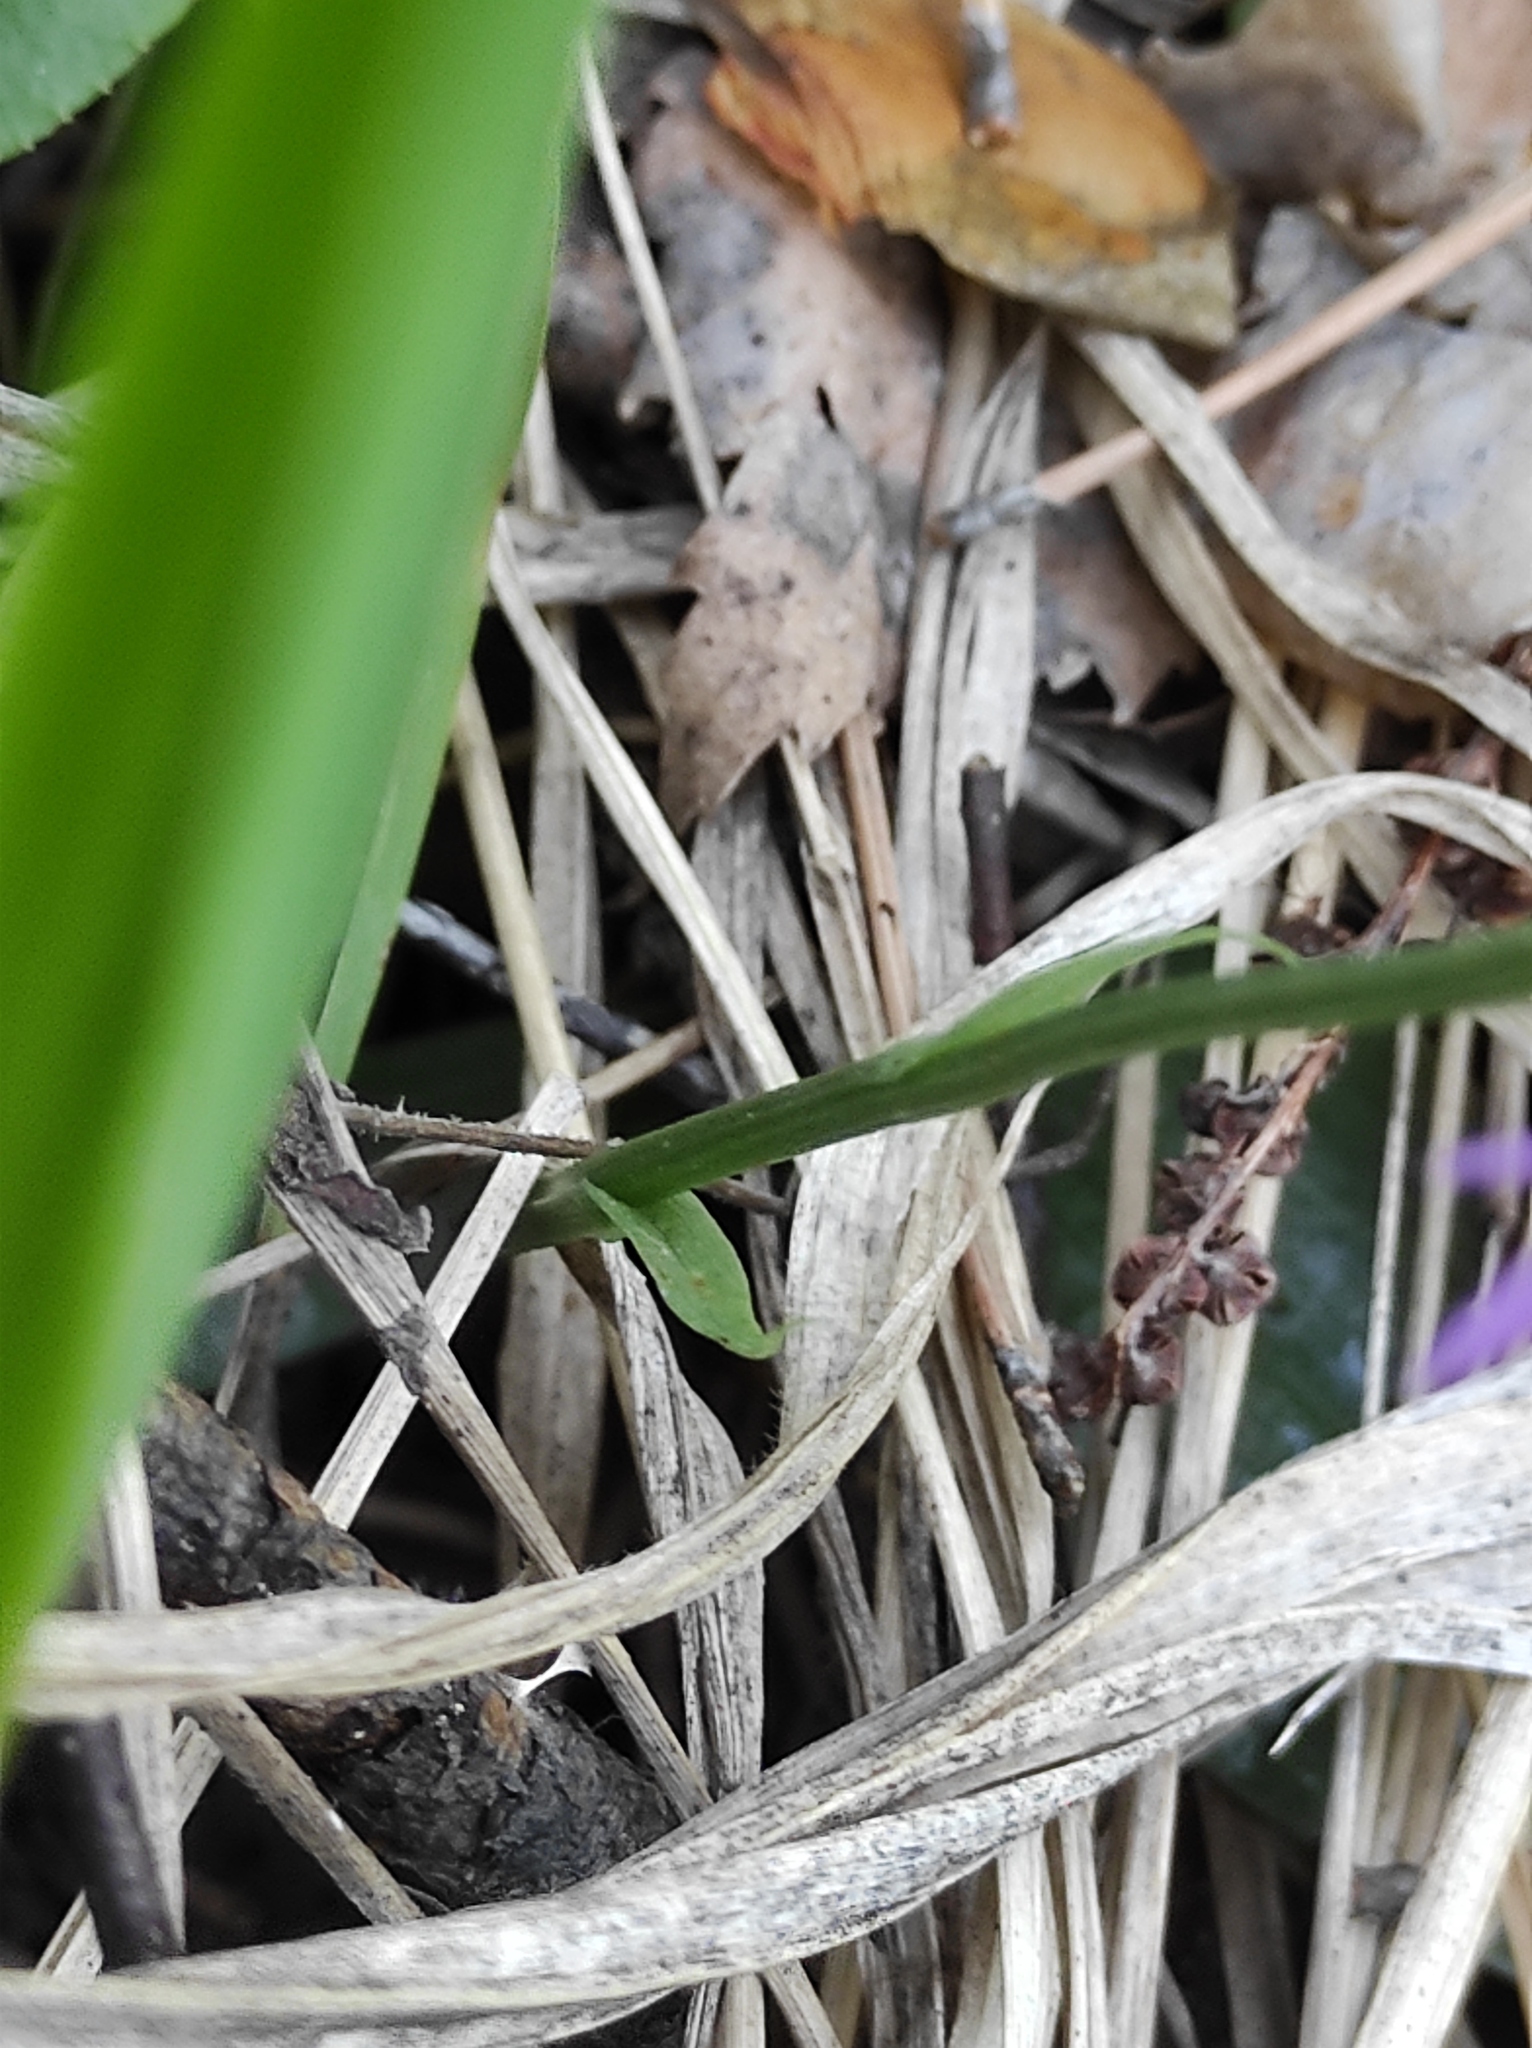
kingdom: Plantae
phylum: Tracheophyta
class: Liliopsida
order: Asparagales
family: Orchidaceae
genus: Hemipilia
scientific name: Hemipilia cucullata
